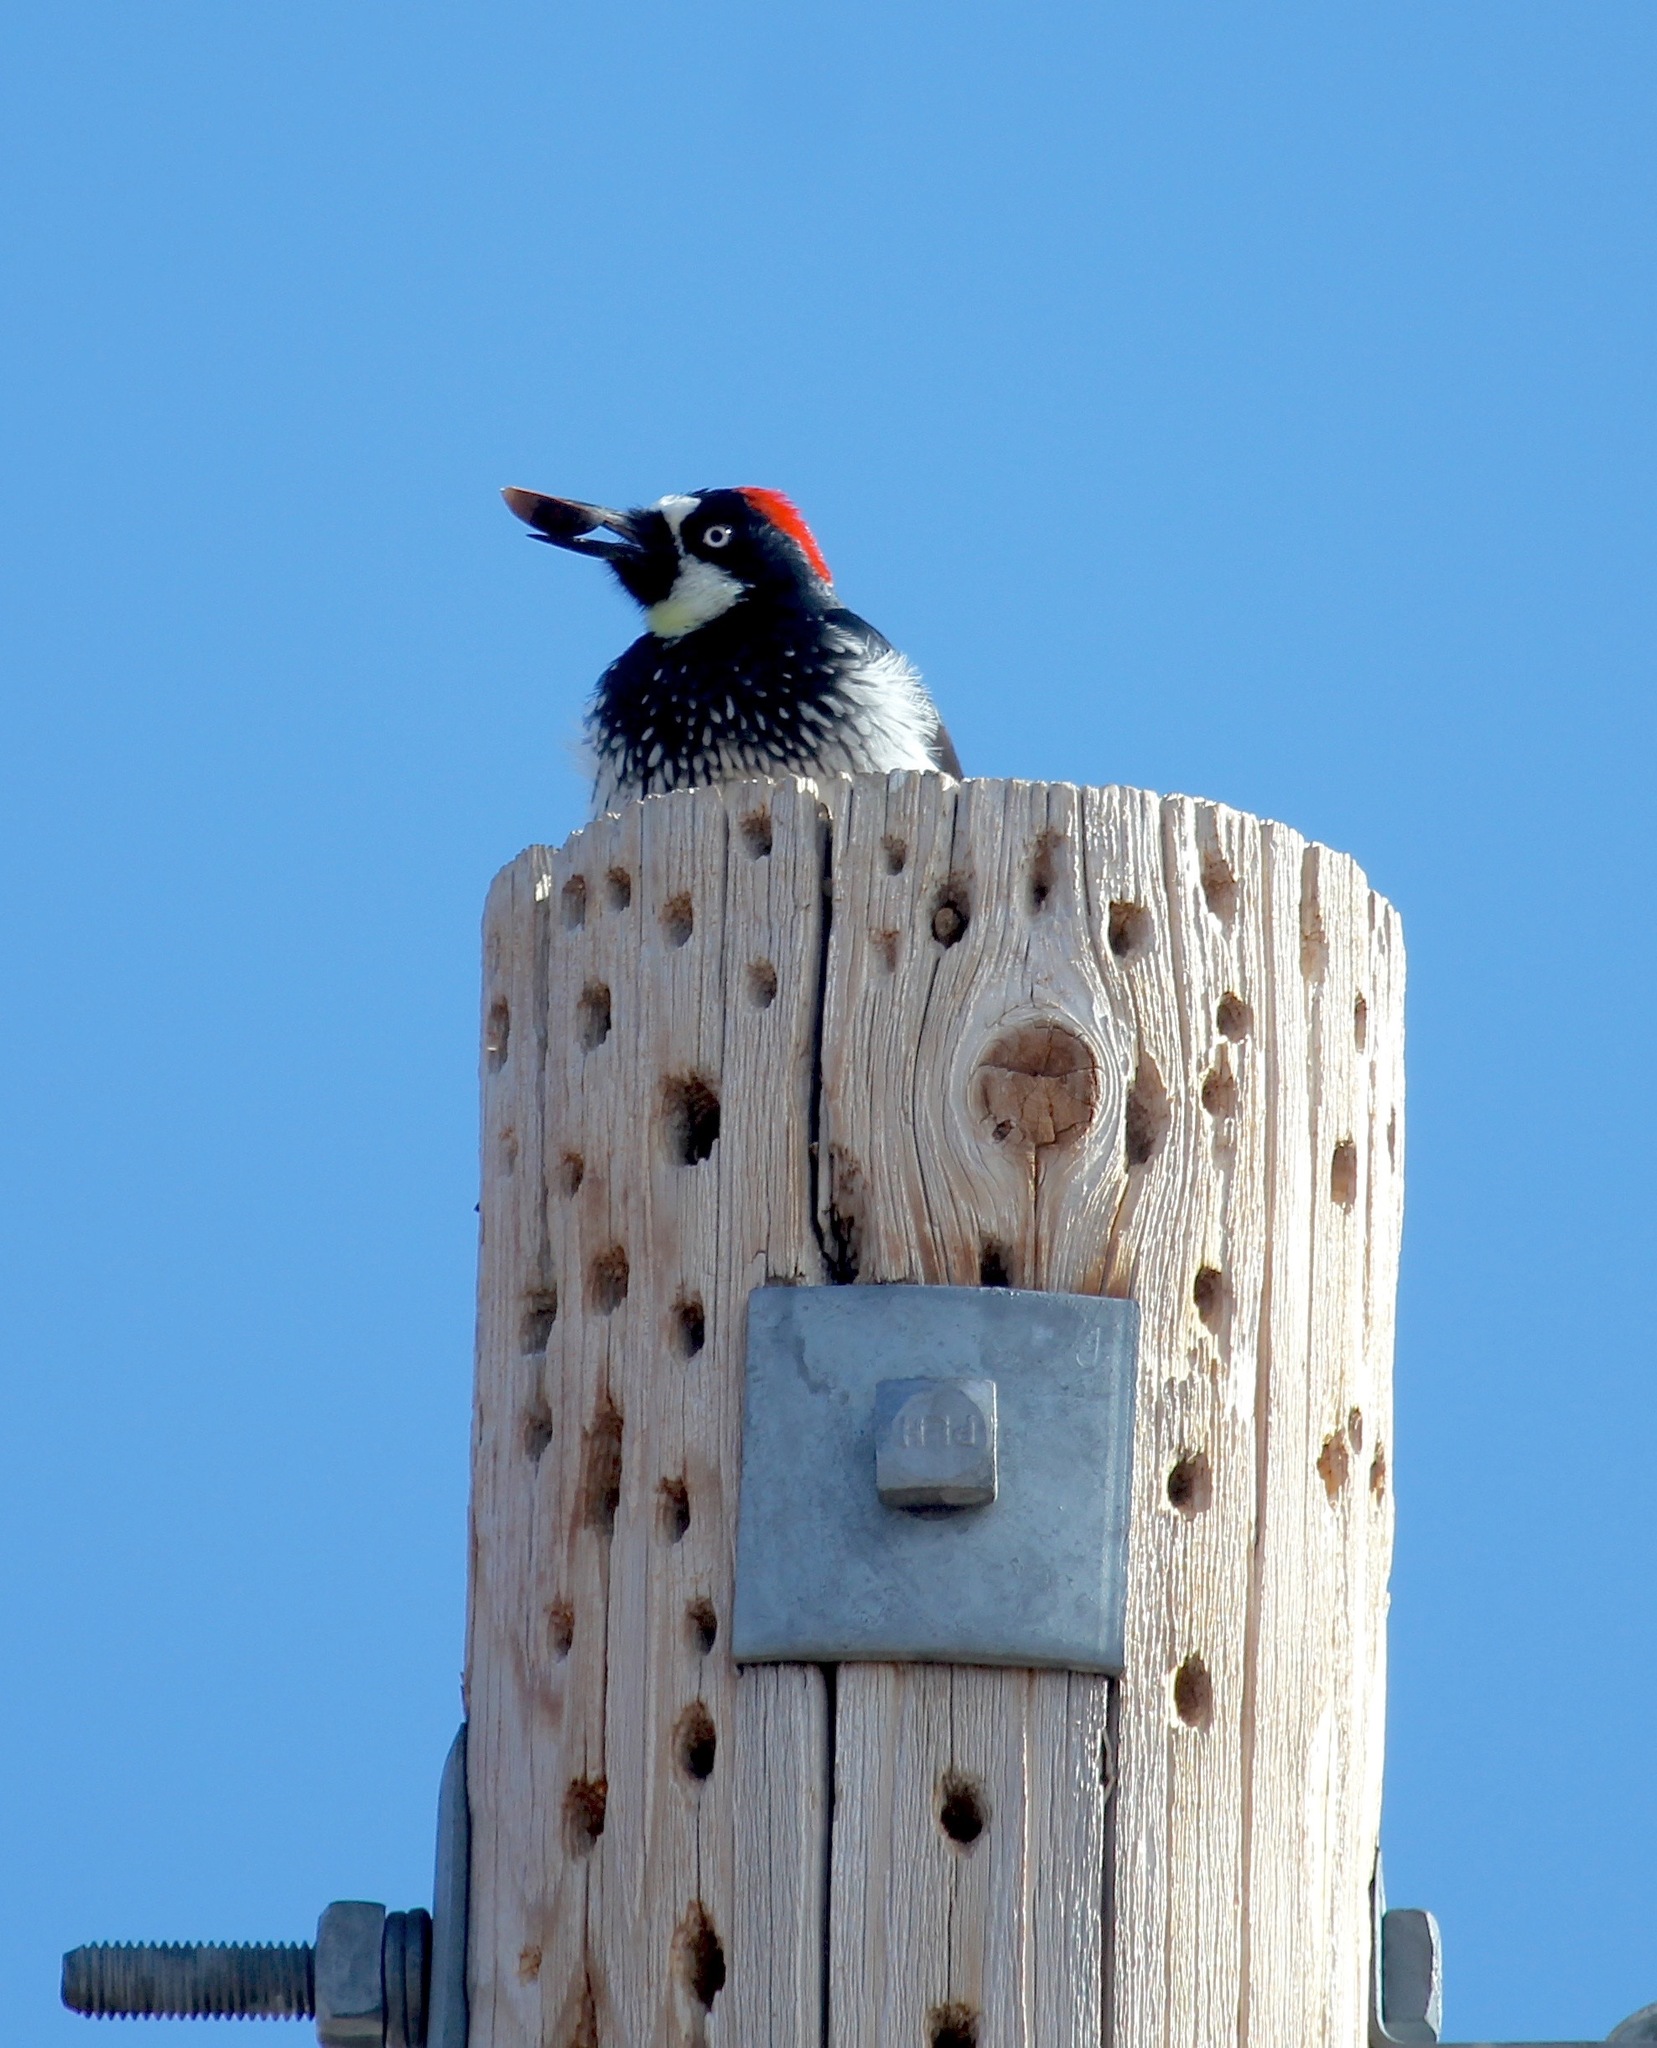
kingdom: Animalia
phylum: Chordata
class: Aves
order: Piciformes
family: Picidae
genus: Melanerpes
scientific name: Melanerpes formicivorus
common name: Acorn woodpecker
